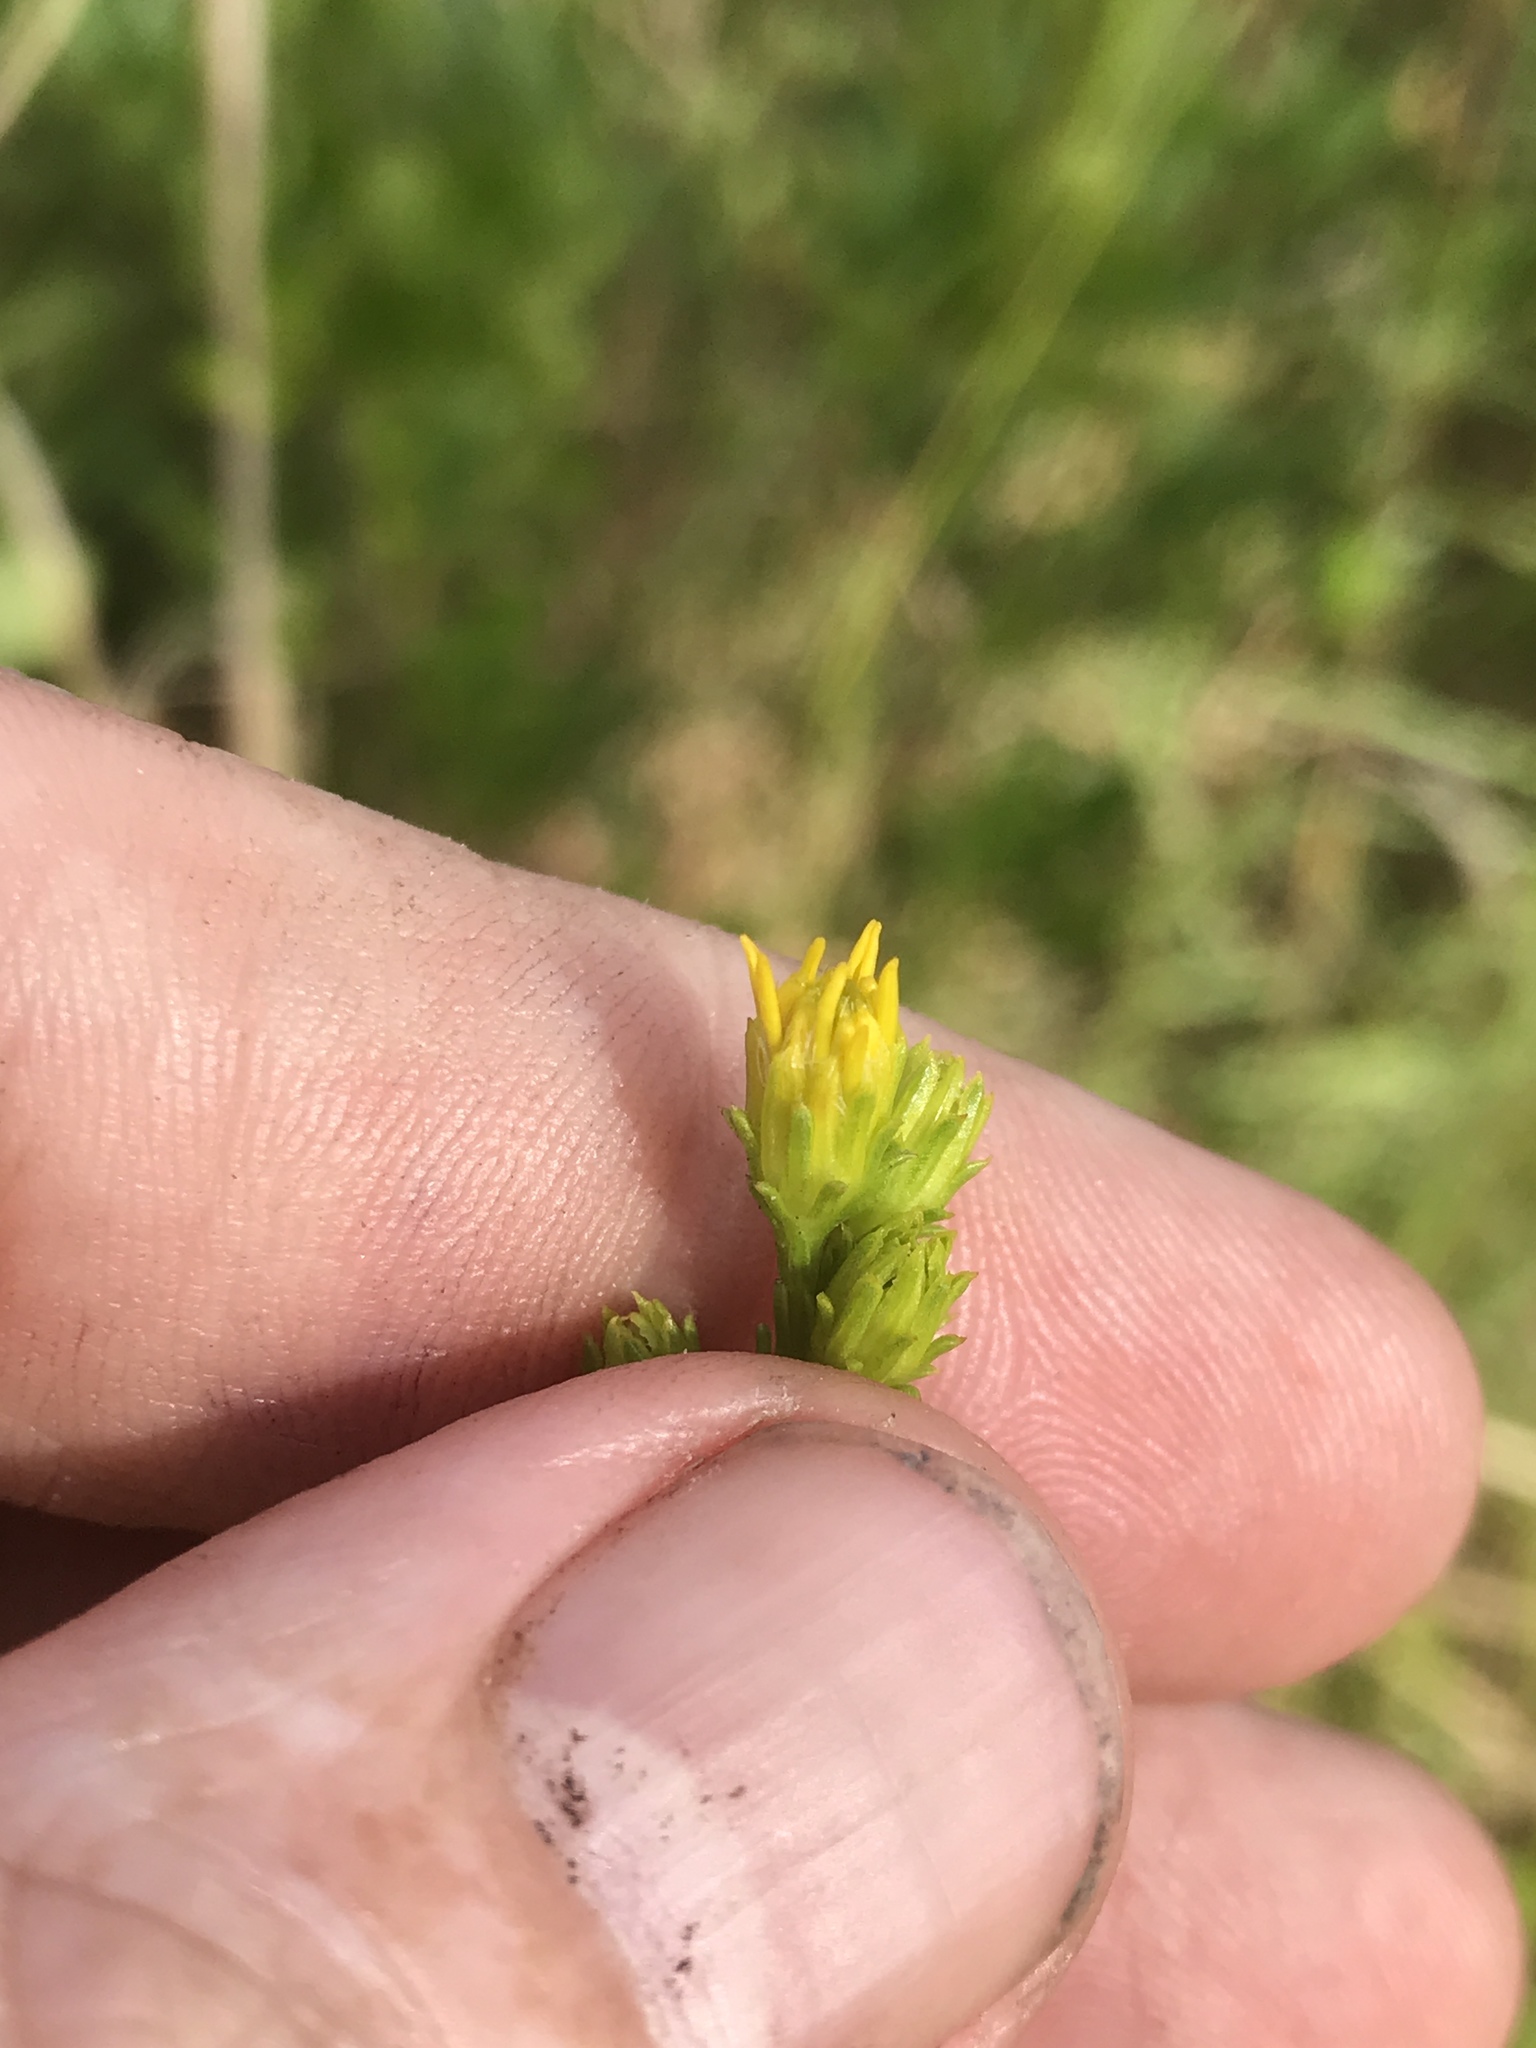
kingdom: Plantae
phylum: Tracheophyta
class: Magnoliopsida
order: Asterales
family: Asteraceae
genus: Solidago
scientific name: Solidago pulchra
